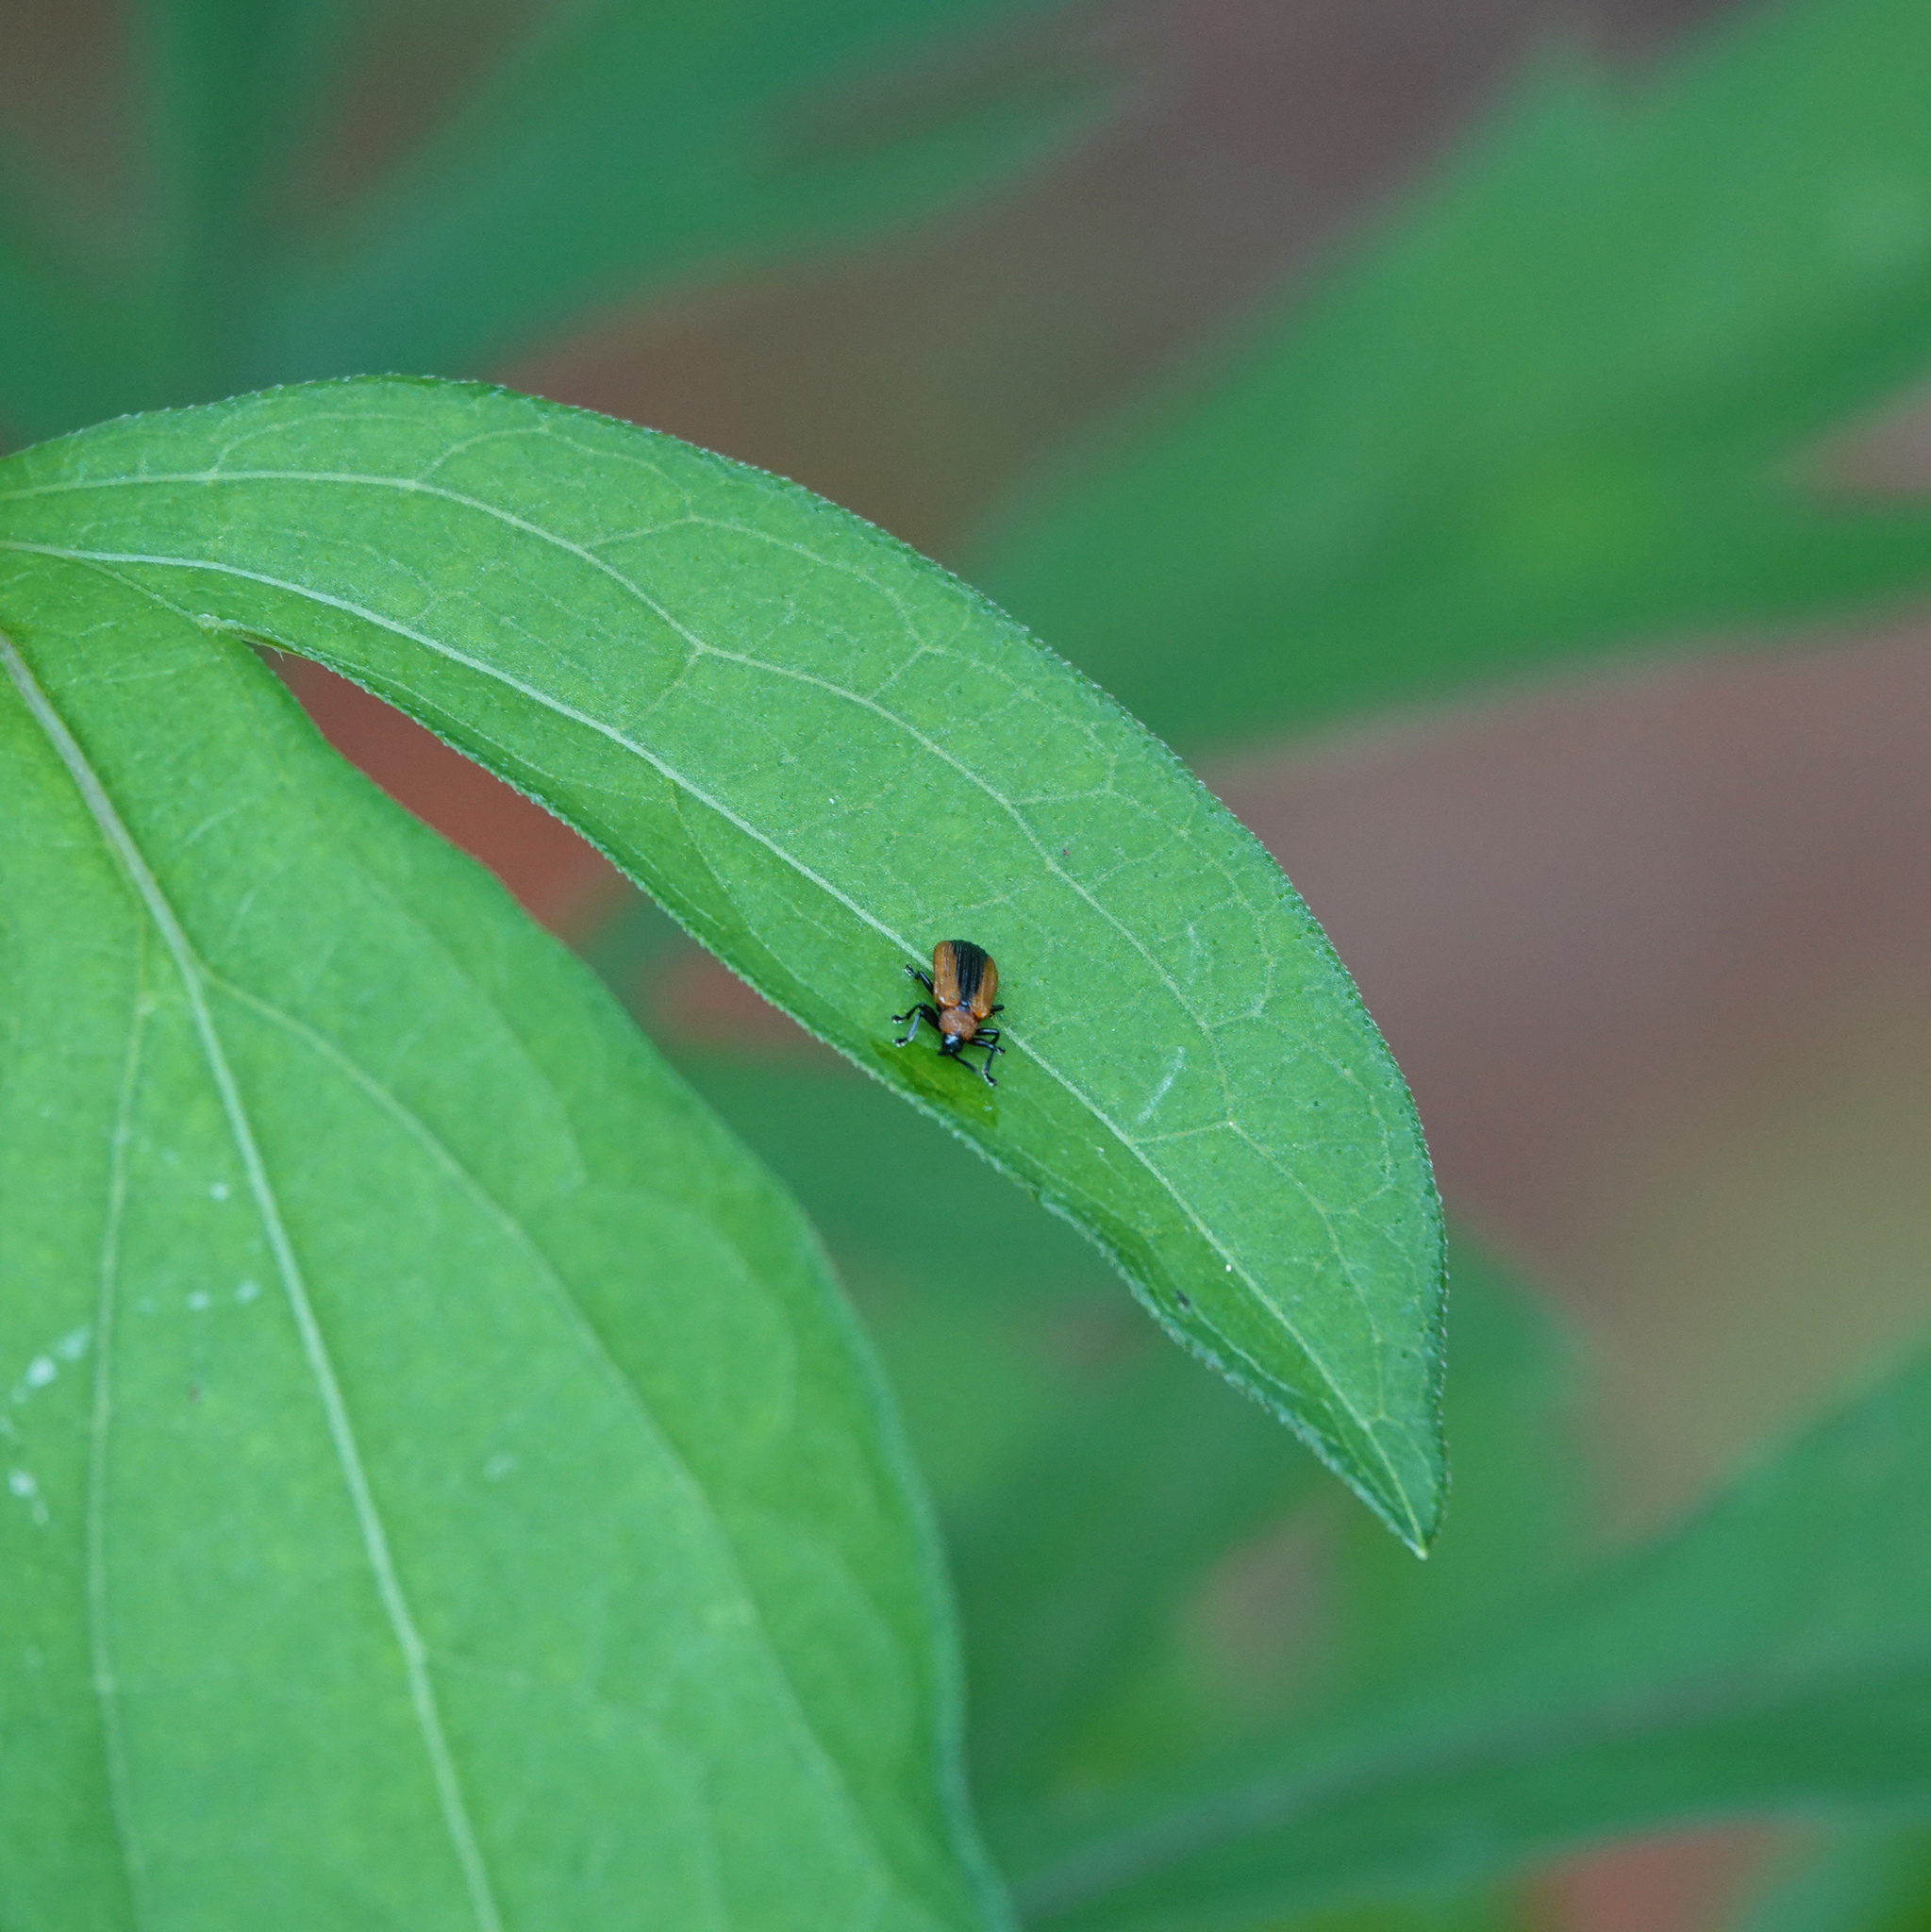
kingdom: Animalia
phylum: Arthropoda
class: Insecta
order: Coleoptera
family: Chrysomelidae
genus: Odontota
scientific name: Odontota dorsalis
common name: Locust leaf-miner beetle
